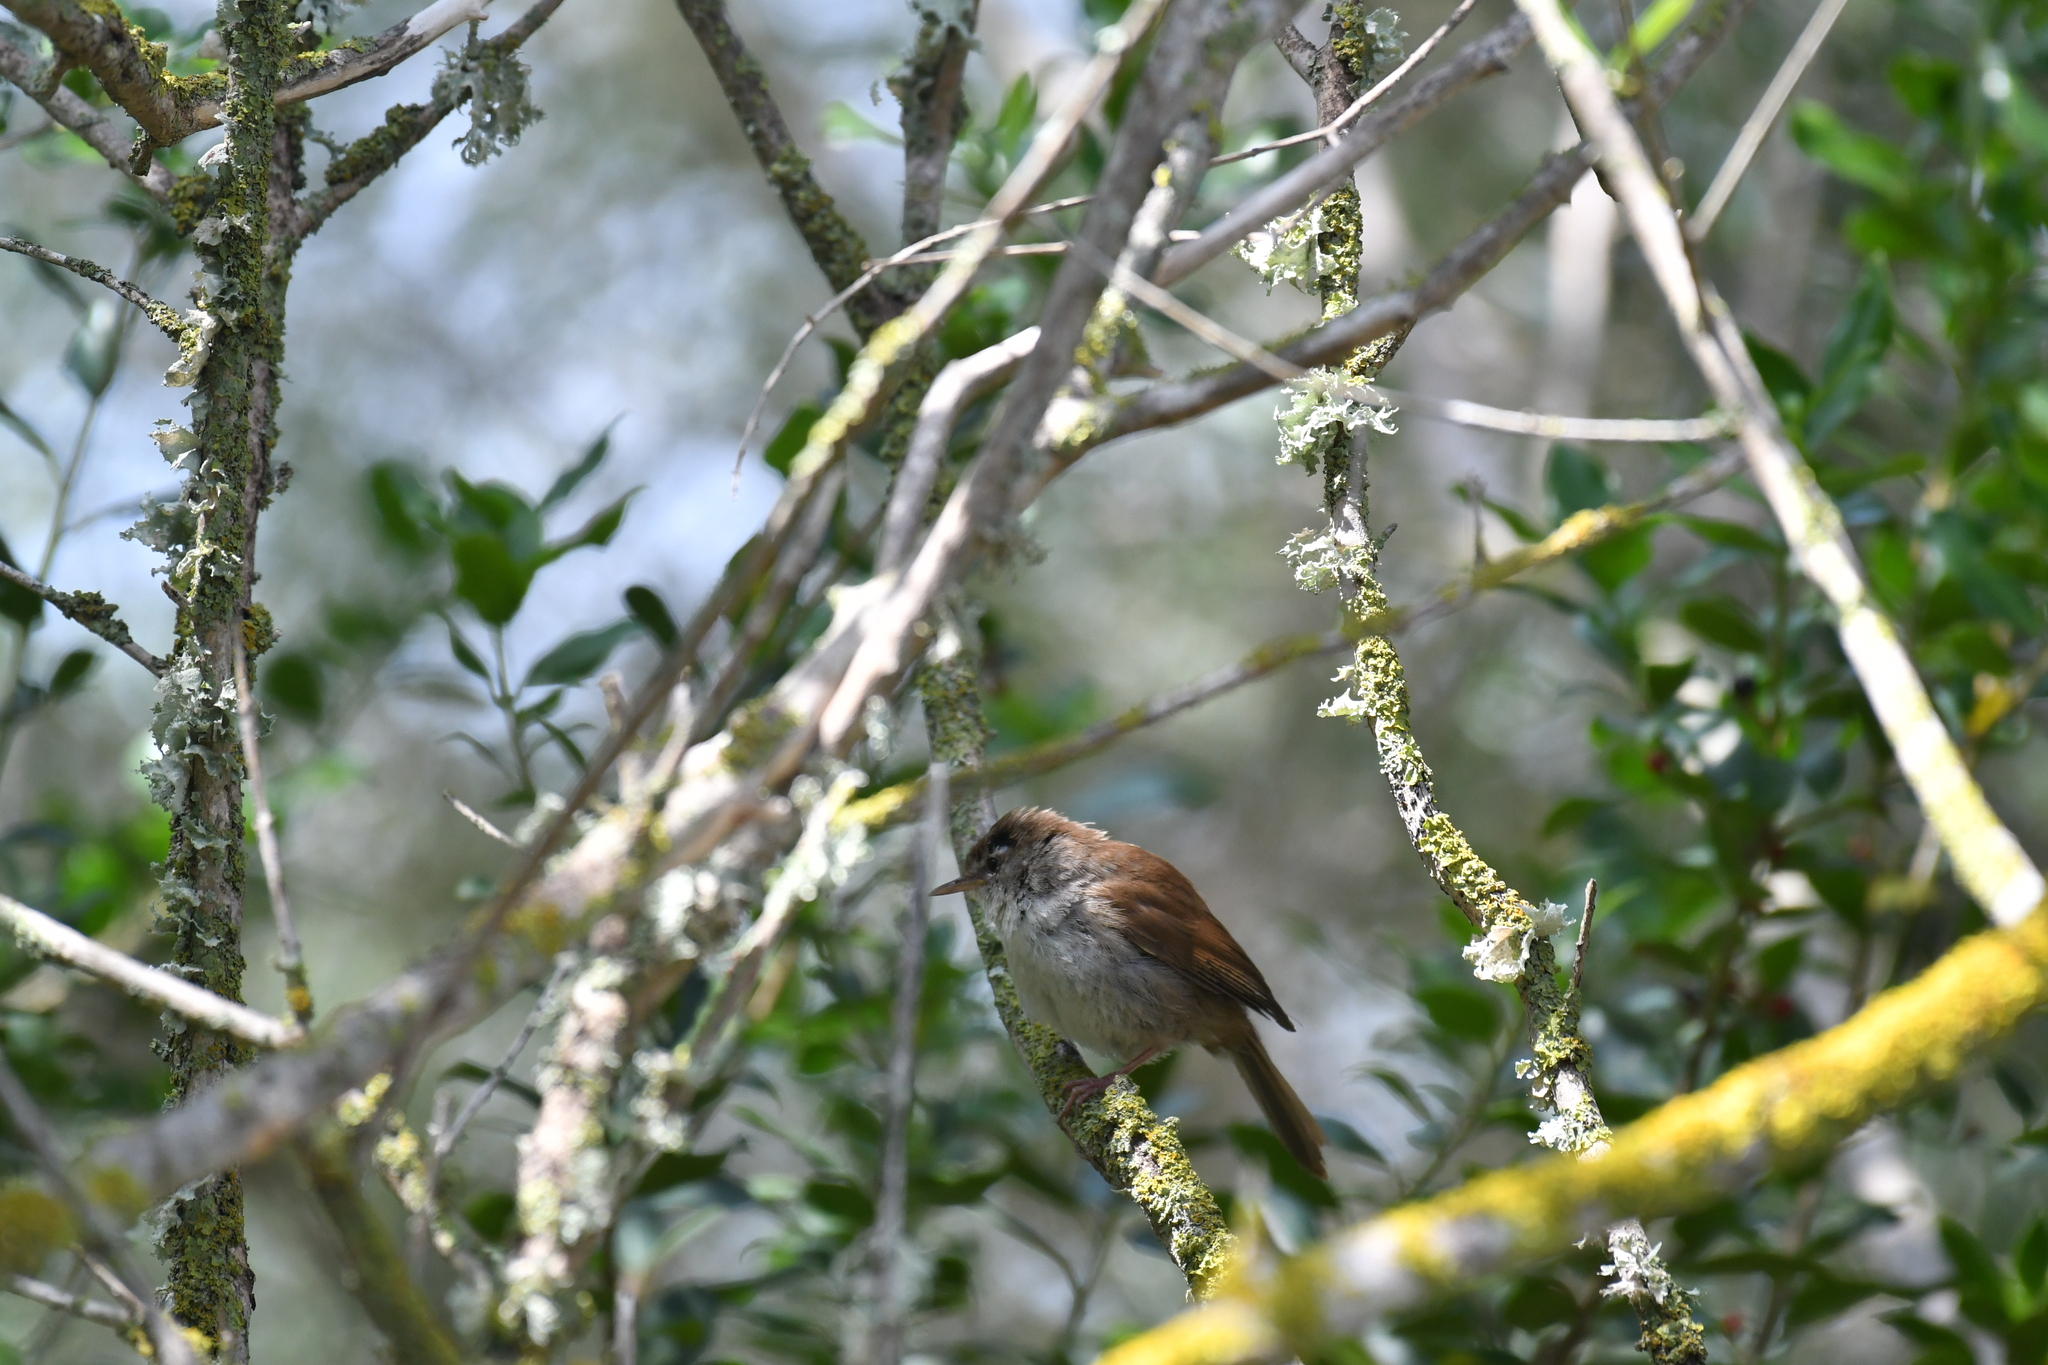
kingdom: Animalia
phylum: Chordata
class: Aves
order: Passeriformes
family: Cettiidae
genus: Cettia
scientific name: Cettia cetti
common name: Cetti's warbler
